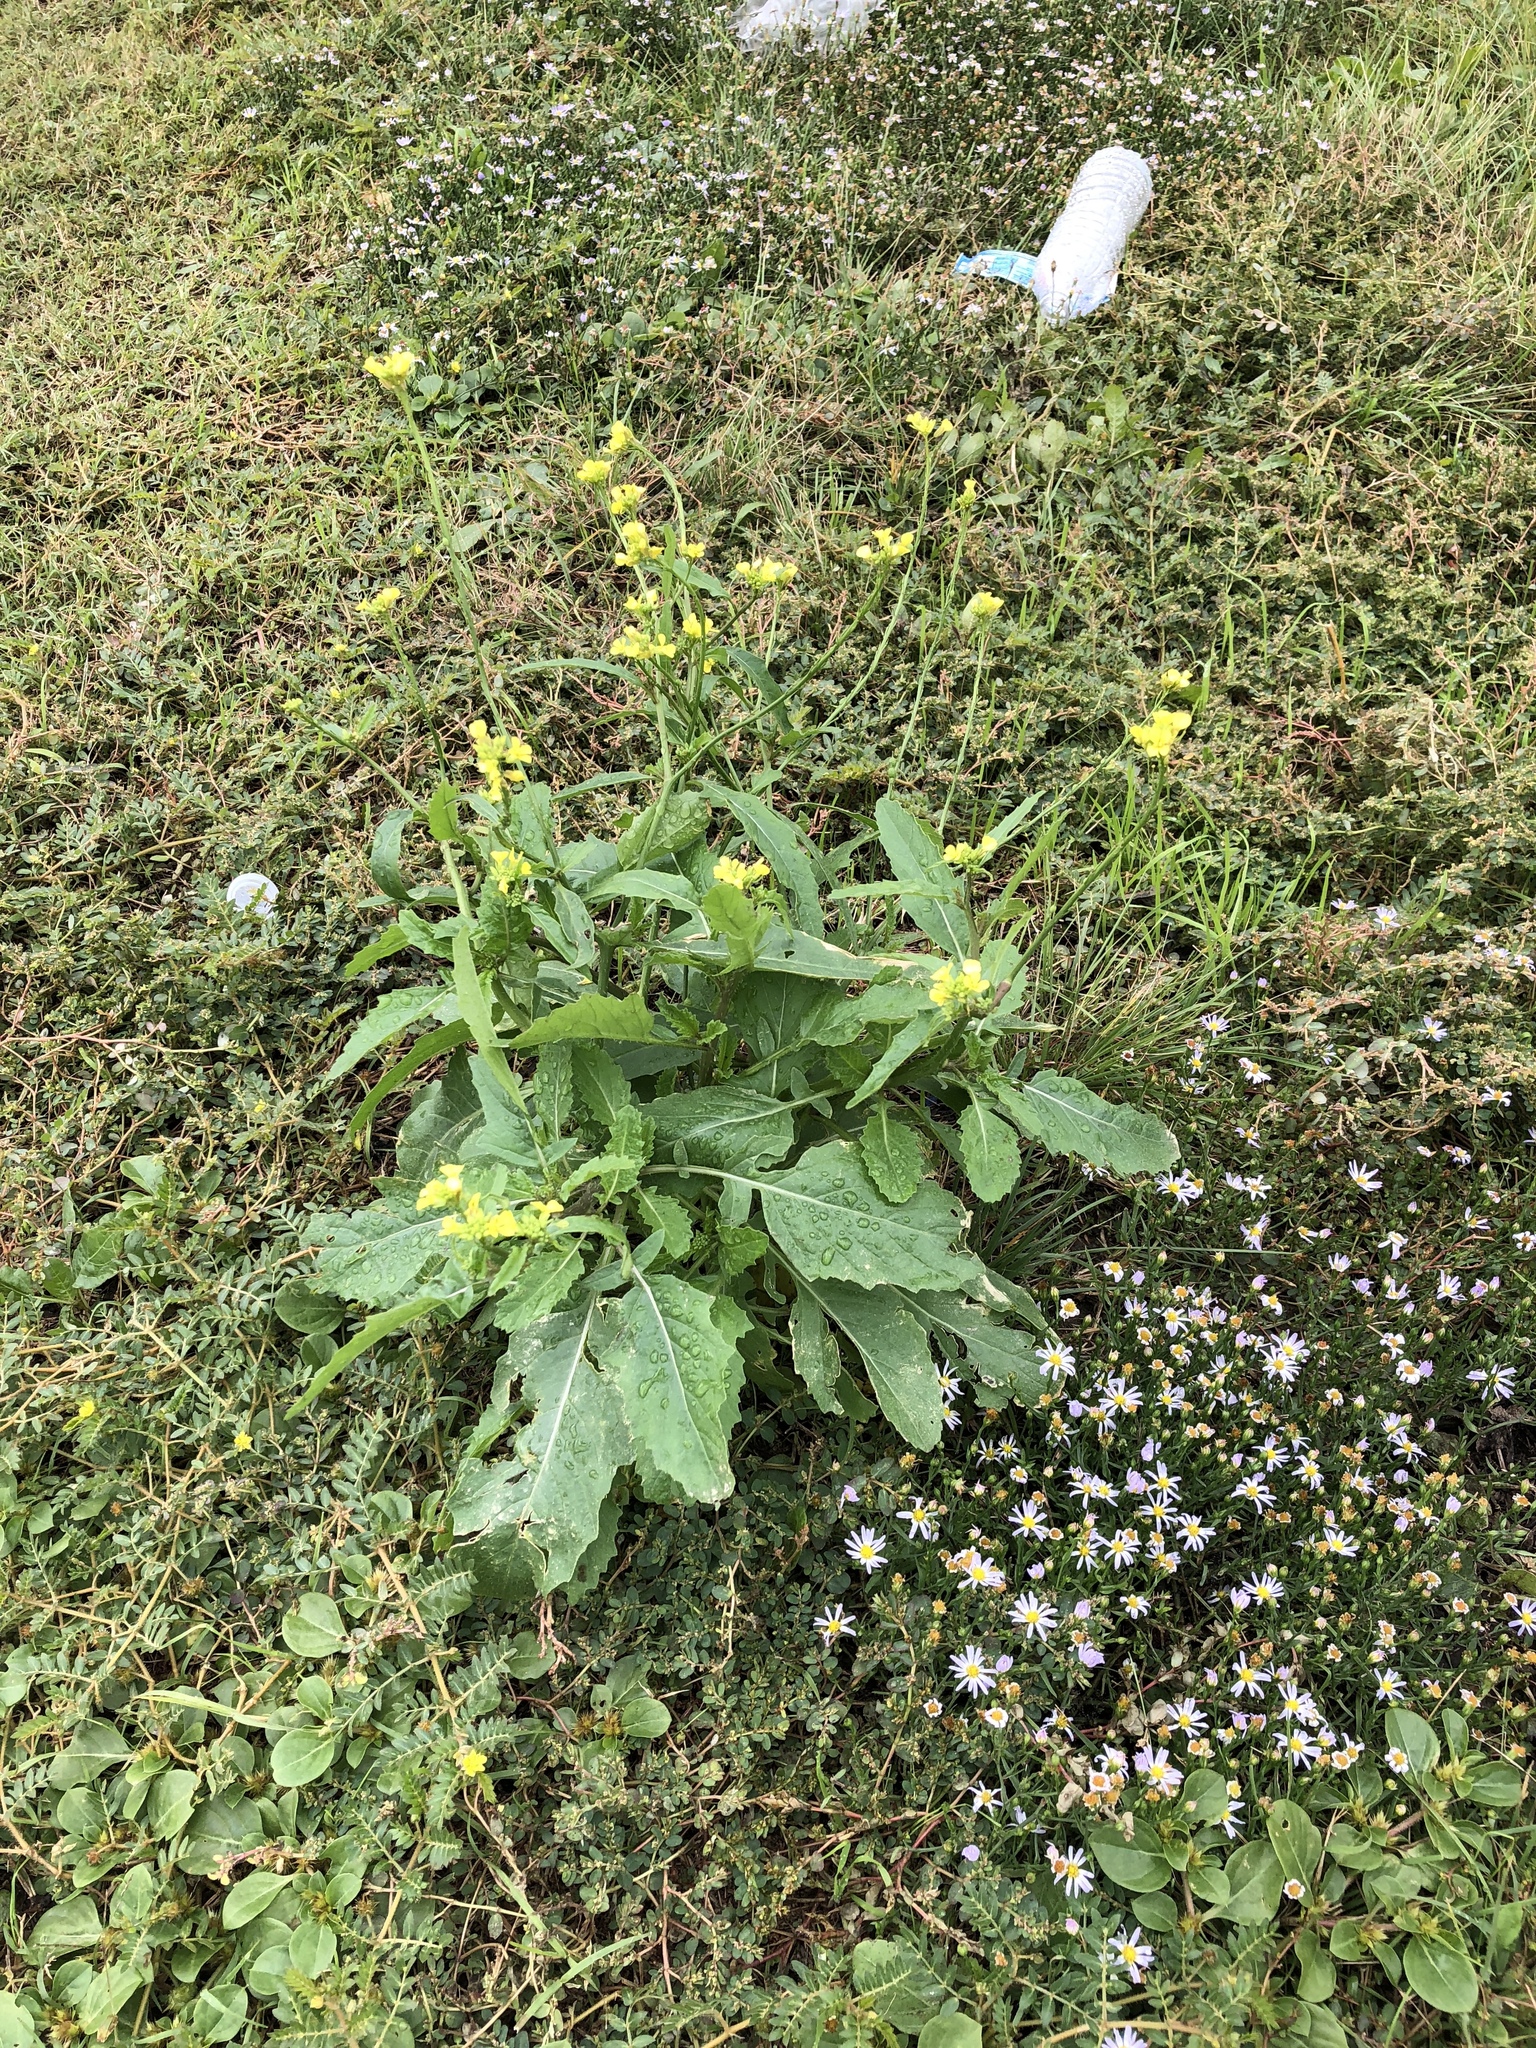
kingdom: Plantae
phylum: Tracheophyta
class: Magnoliopsida
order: Brassicales
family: Brassicaceae
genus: Rapistrum
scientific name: Rapistrum rugosum
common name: Annual bastardcabbage
